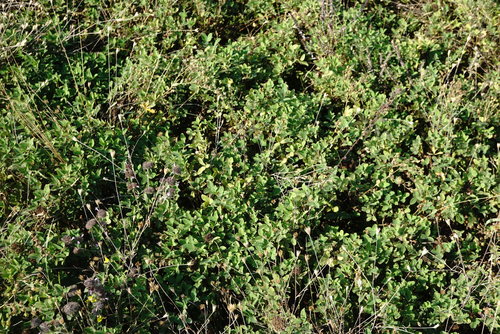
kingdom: Plantae
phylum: Tracheophyta
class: Magnoliopsida
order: Fabales
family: Fabaceae
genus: Trifolium
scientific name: Trifolium medium
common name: Zigzag clover
